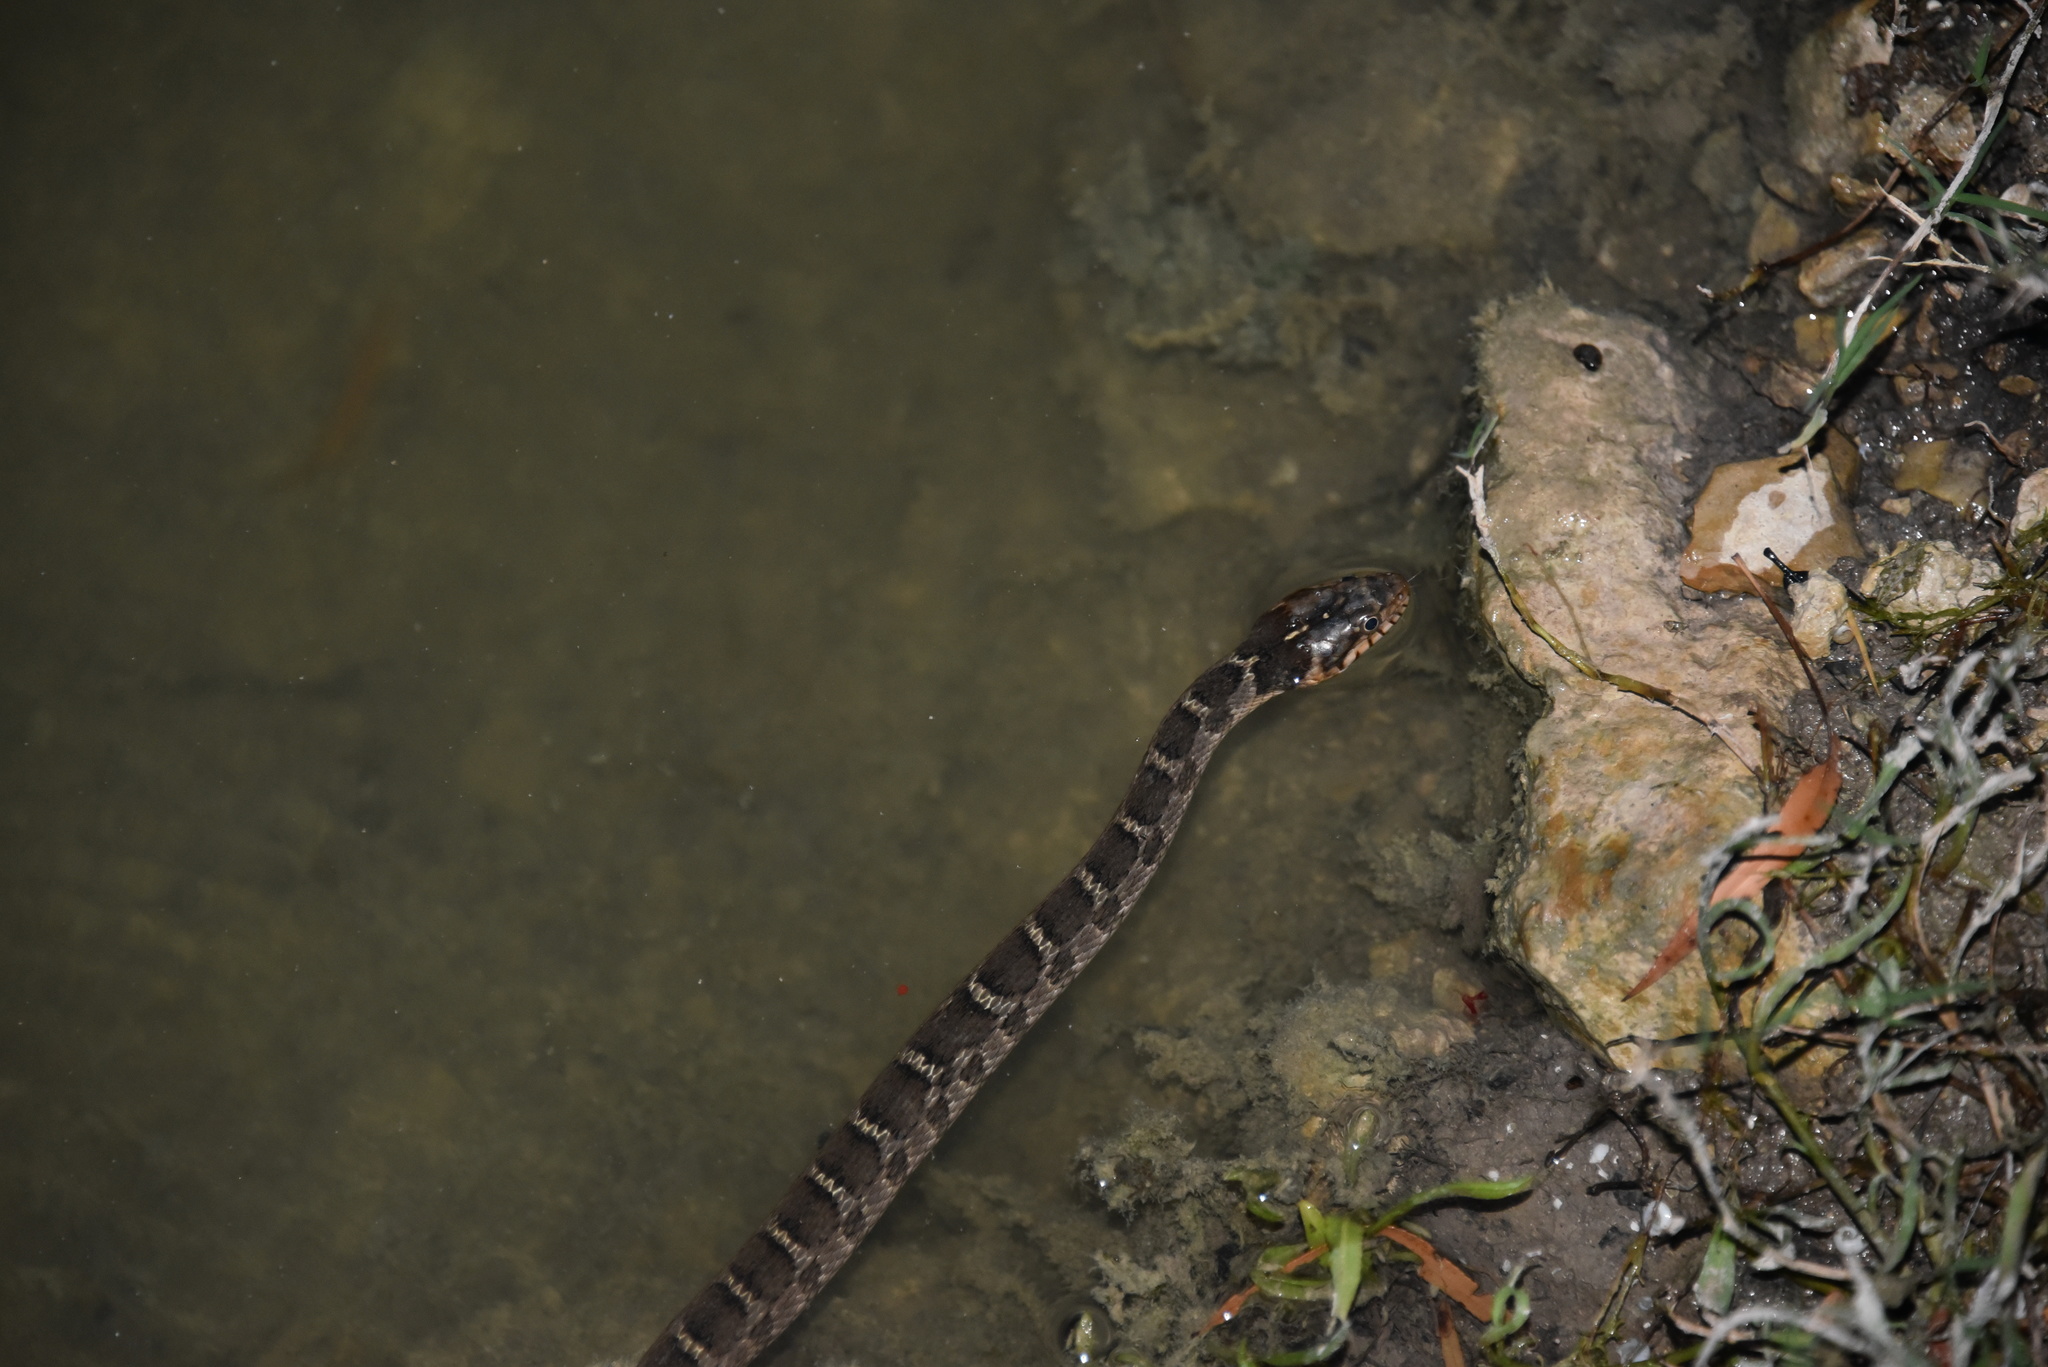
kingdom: Animalia
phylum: Chordata
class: Squamata
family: Colubridae
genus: Nerodia
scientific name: Nerodia erythrogaster
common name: Plainbelly water snake
